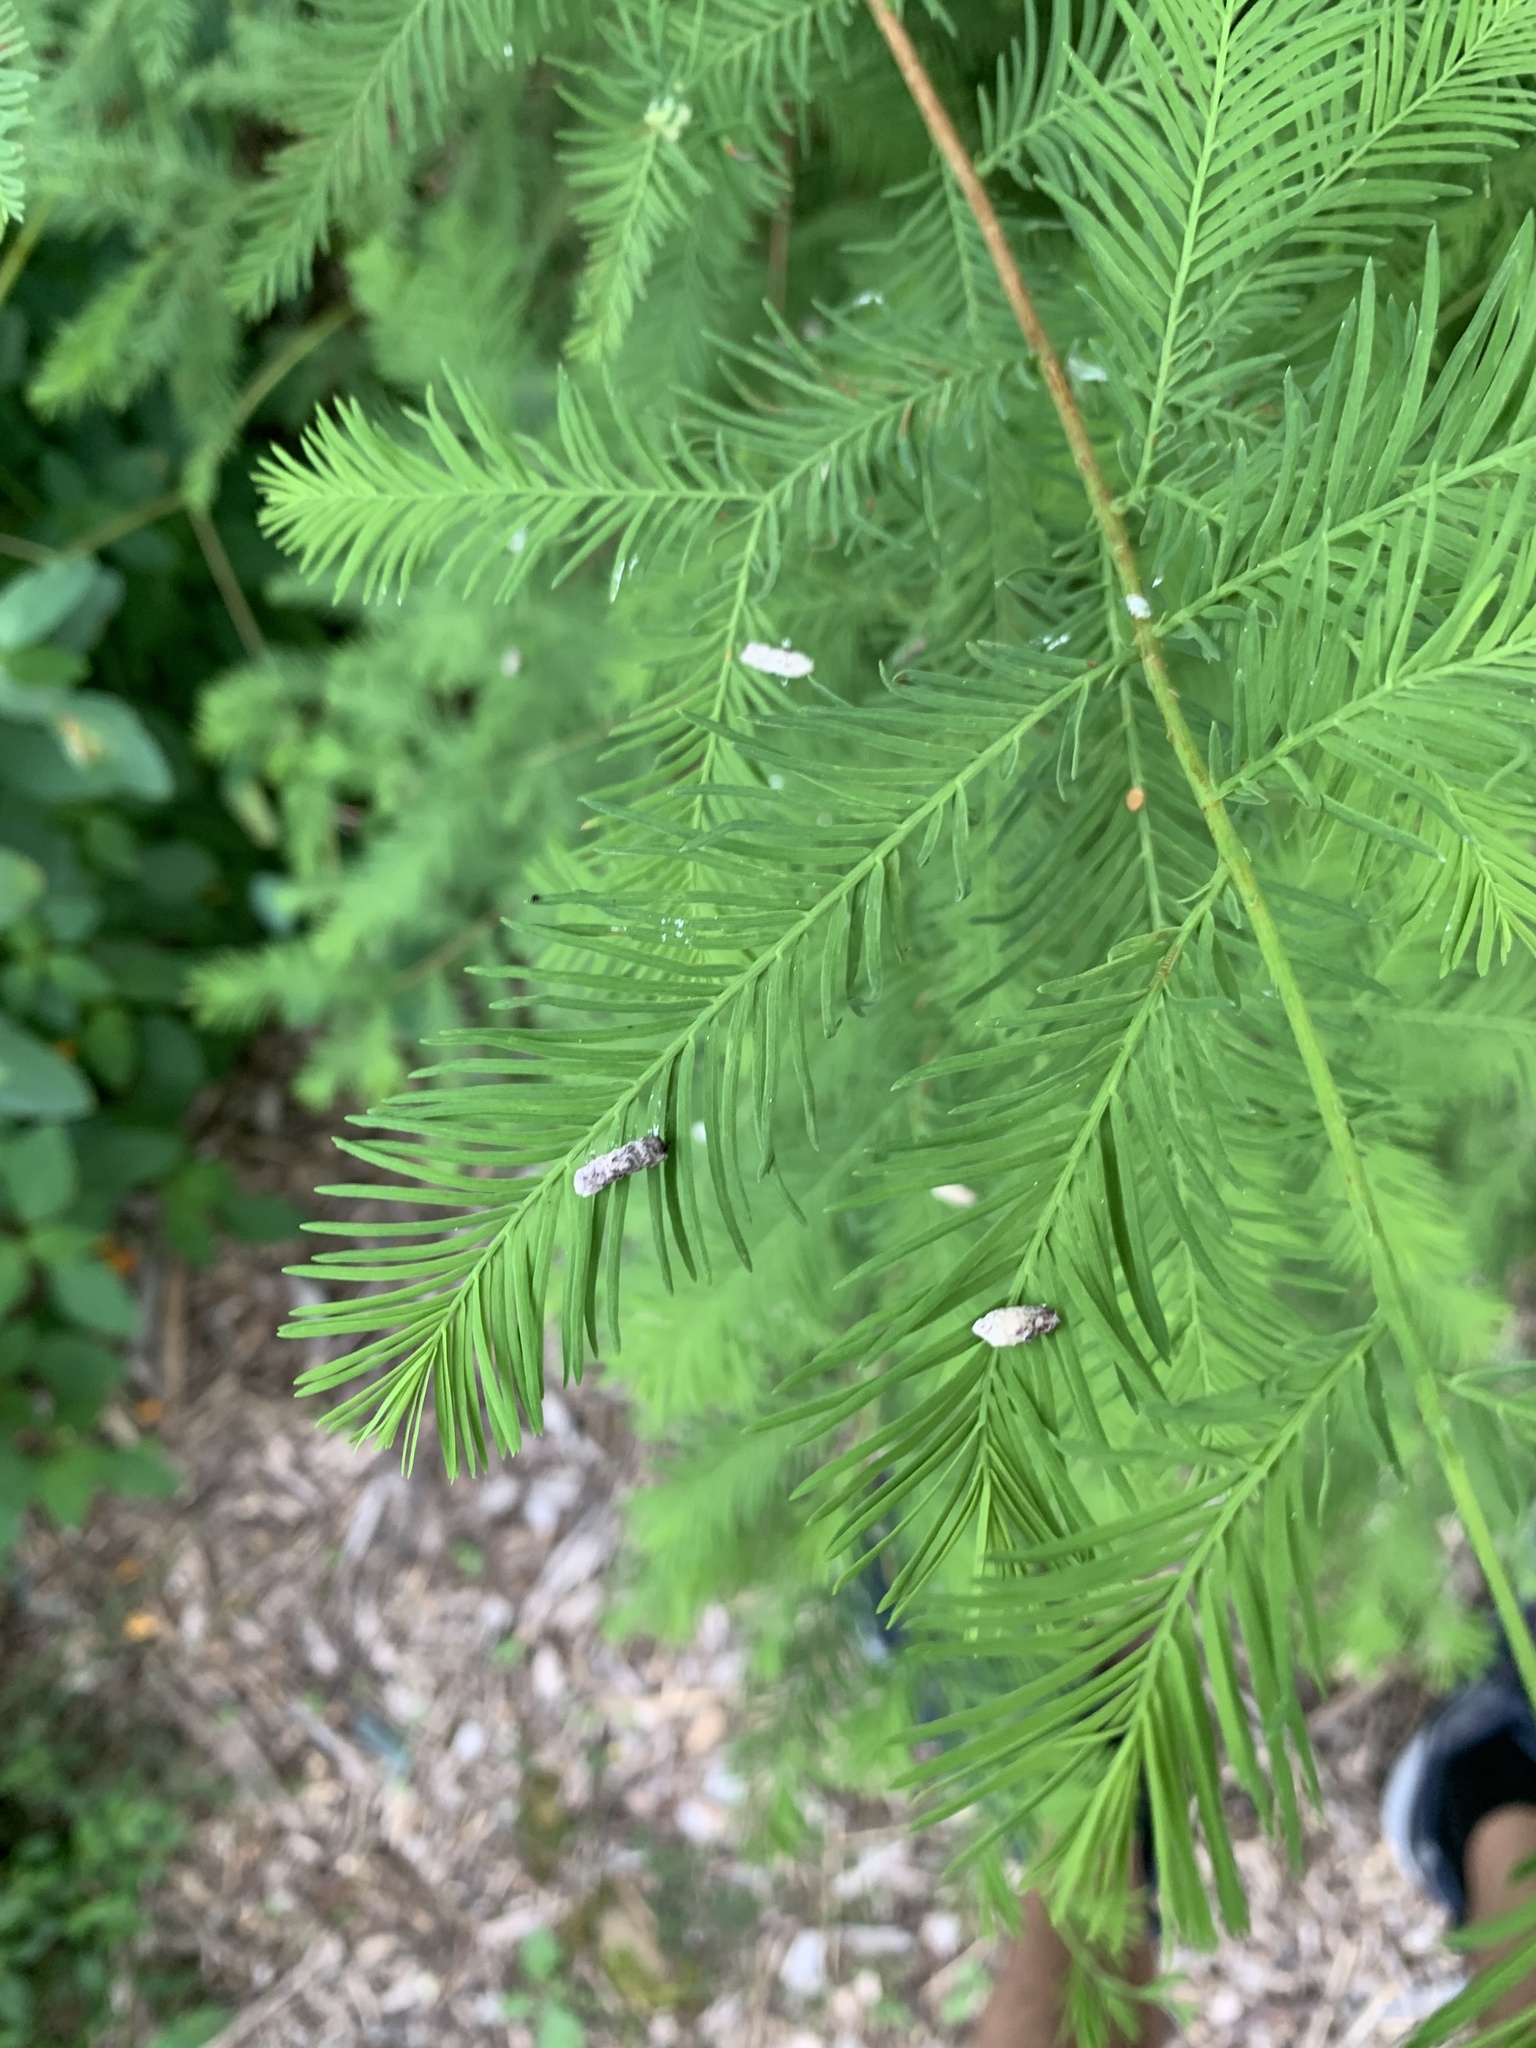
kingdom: Animalia
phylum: Arthropoda
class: Insecta
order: Diptera
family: Cecidomyiidae
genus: Taxodiomyia
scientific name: Taxodiomyia cupressiananassa
